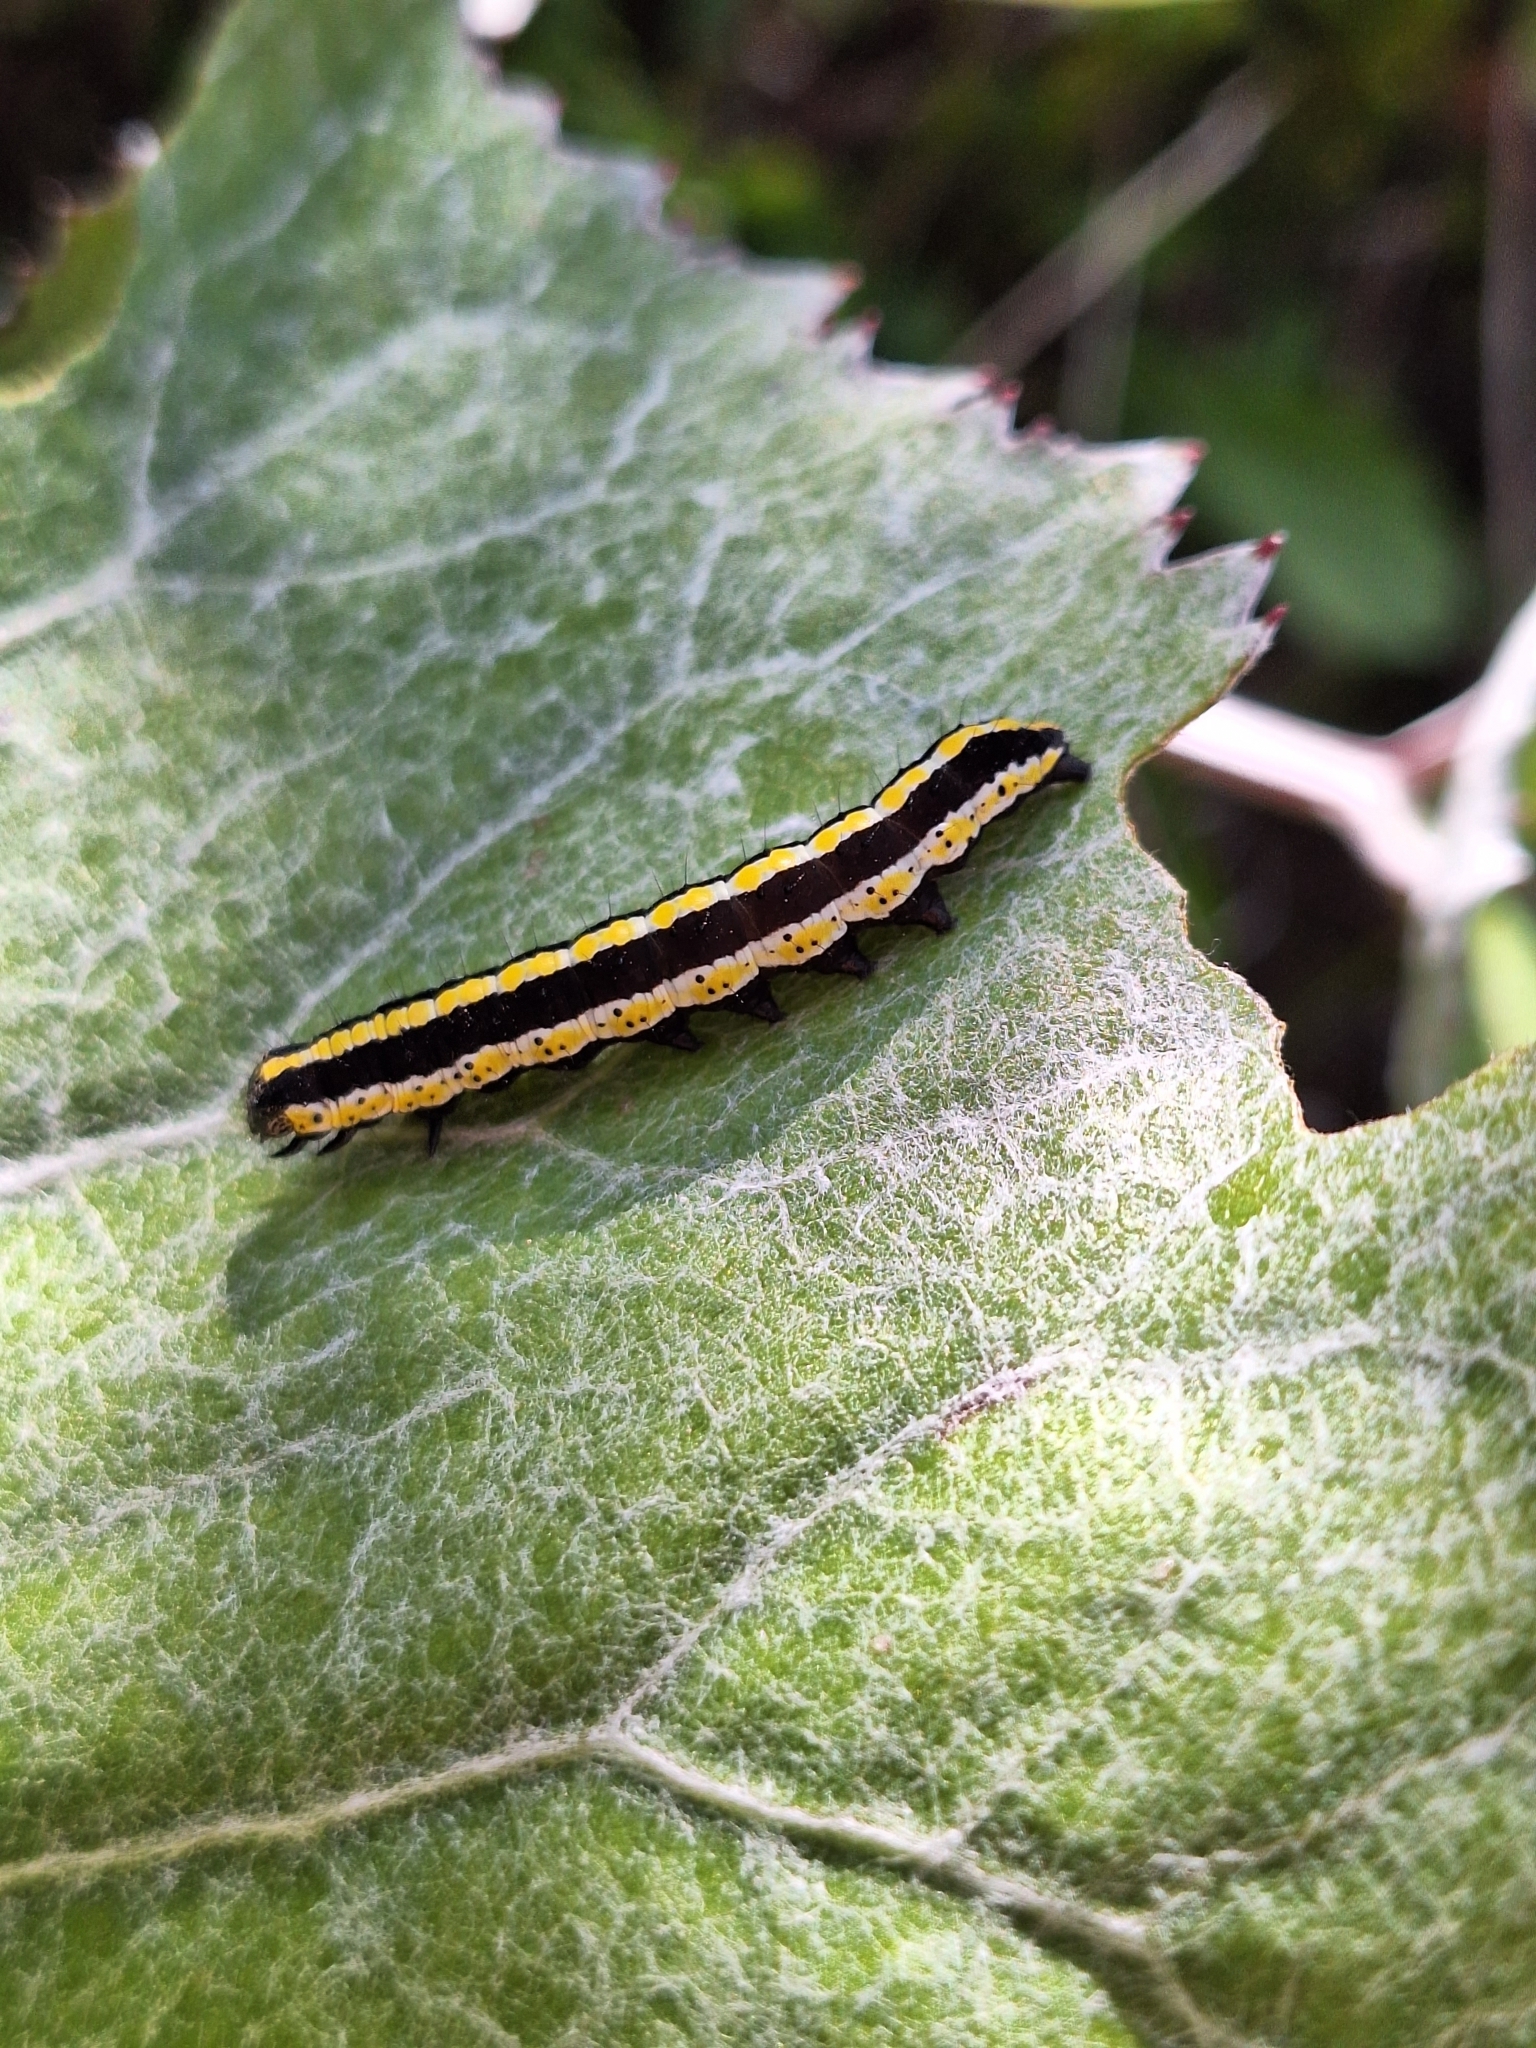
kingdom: Animalia
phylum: Arthropoda
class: Insecta
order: Lepidoptera
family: Noctuidae
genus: Cucullia
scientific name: Cucullia lucifuga
